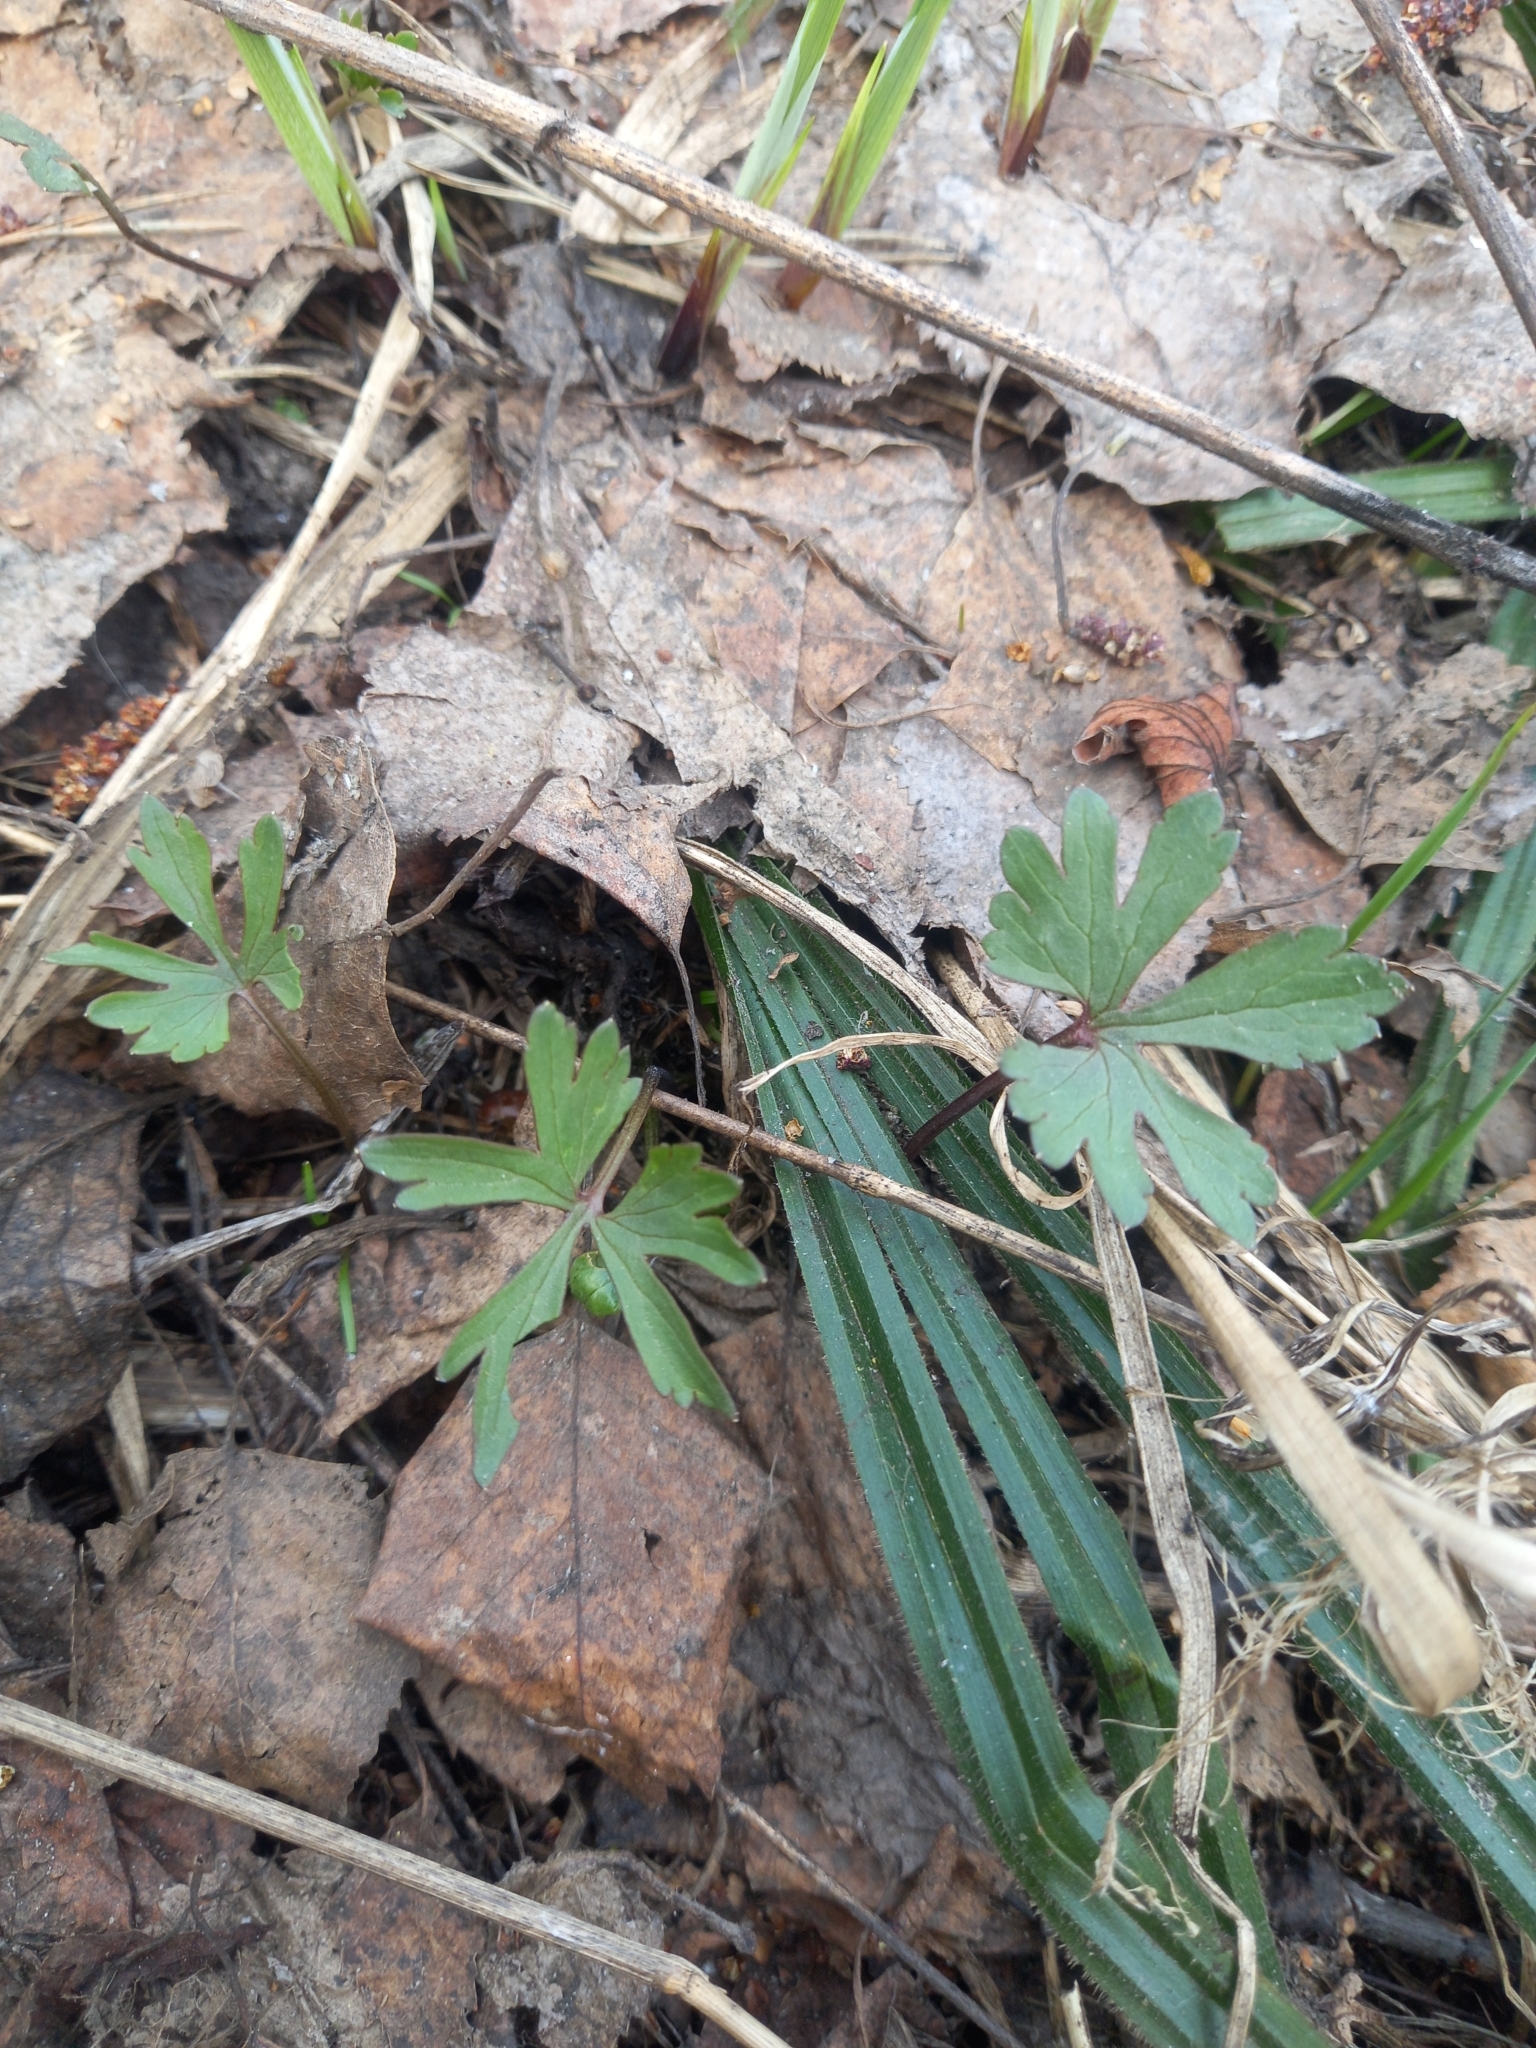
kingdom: Plantae
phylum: Tracheophyta
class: Magnoliopsida
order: Ranunculales
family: Ranunculaceae
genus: Ranunculus
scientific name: Ranunculus auricomus
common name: Goldilocks buttercup
